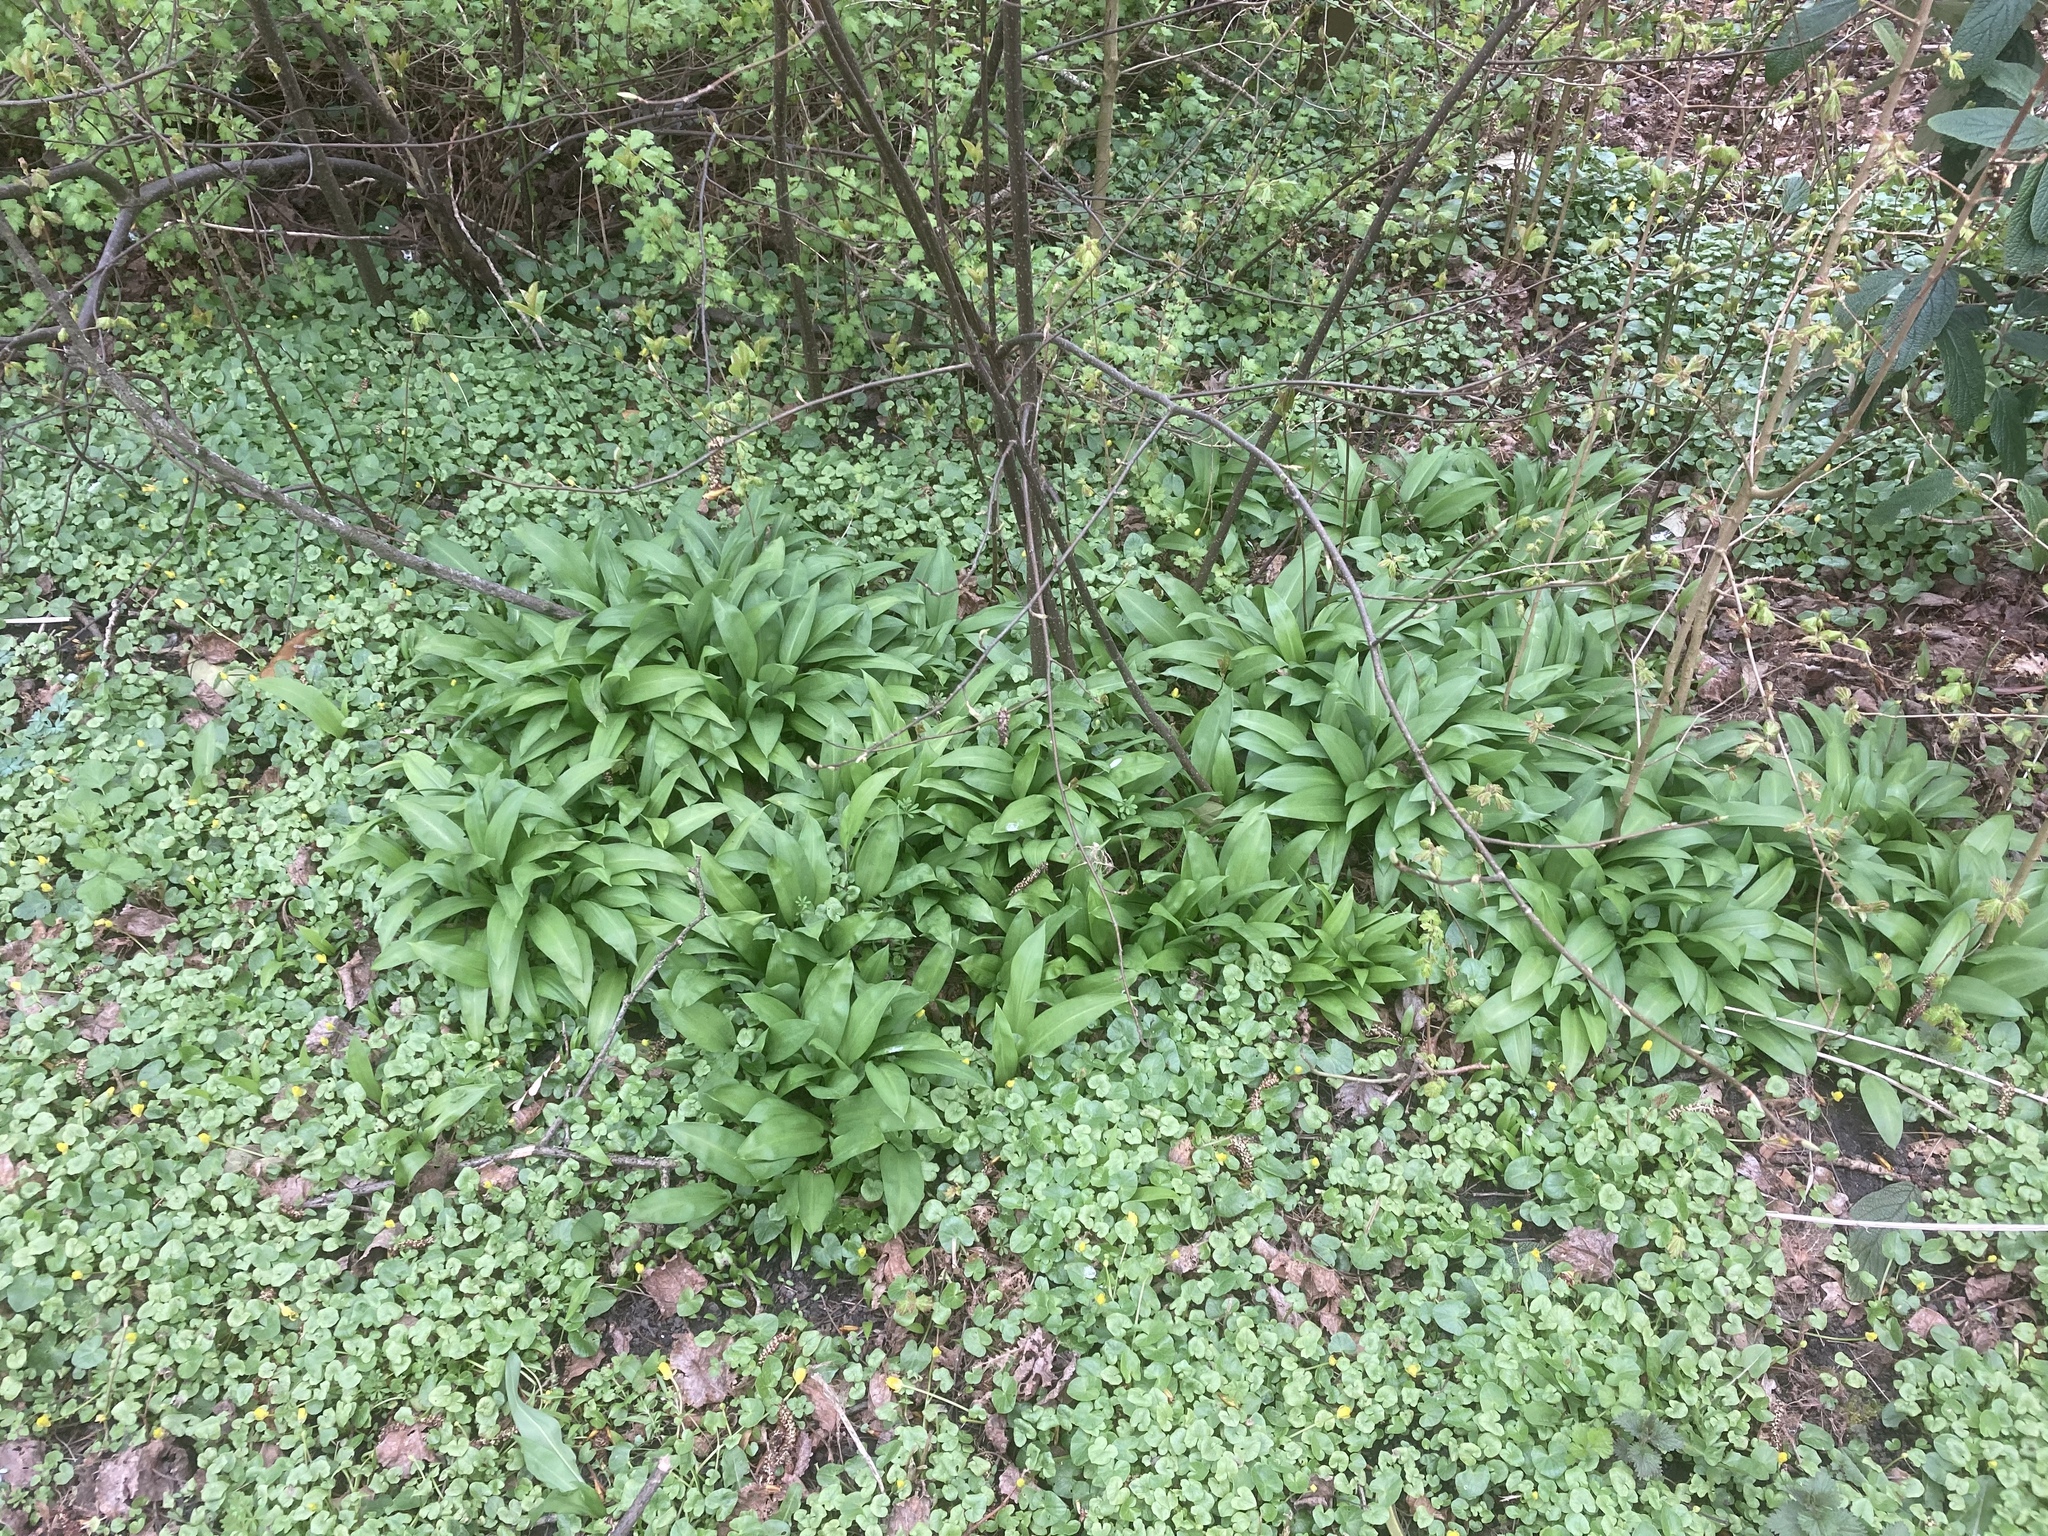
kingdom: Plantae
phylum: Tracheophyta
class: Liliopsida
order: Asparagales
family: Amaryllidaceae
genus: Allium
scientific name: Allium ursinum
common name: Ramsons
